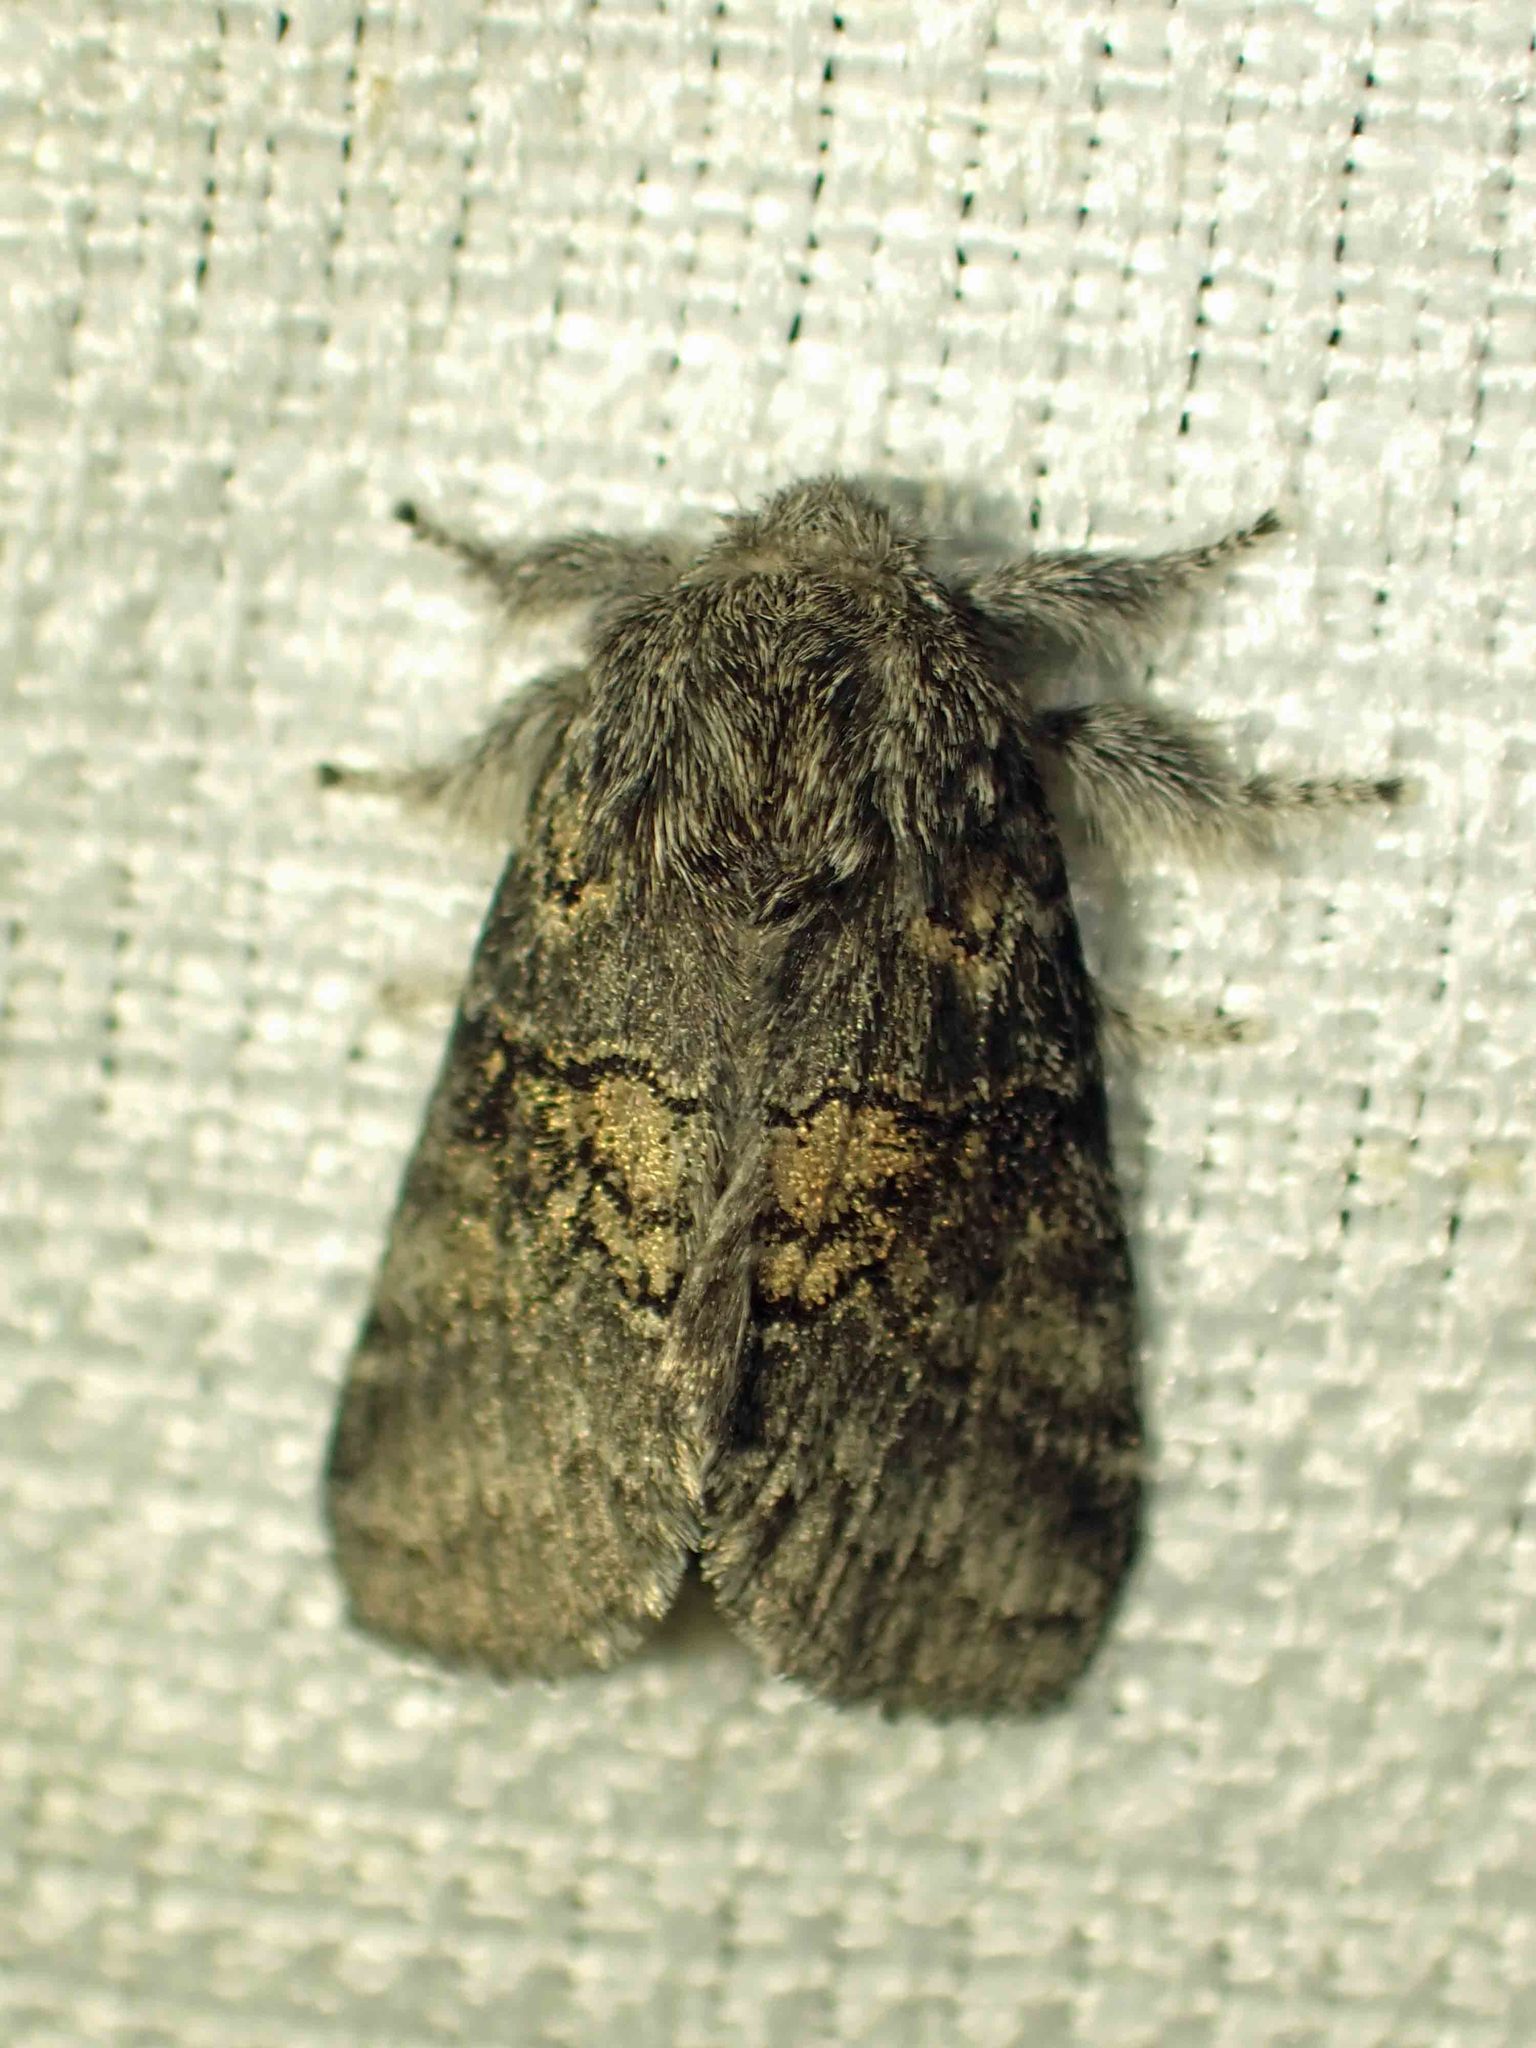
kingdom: Animalia
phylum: Arthropoda
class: Insecta
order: Lepidoptera
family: Notodontidae
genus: Gluphisia
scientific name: Gluphisia septentrionis
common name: Common gluphisia
